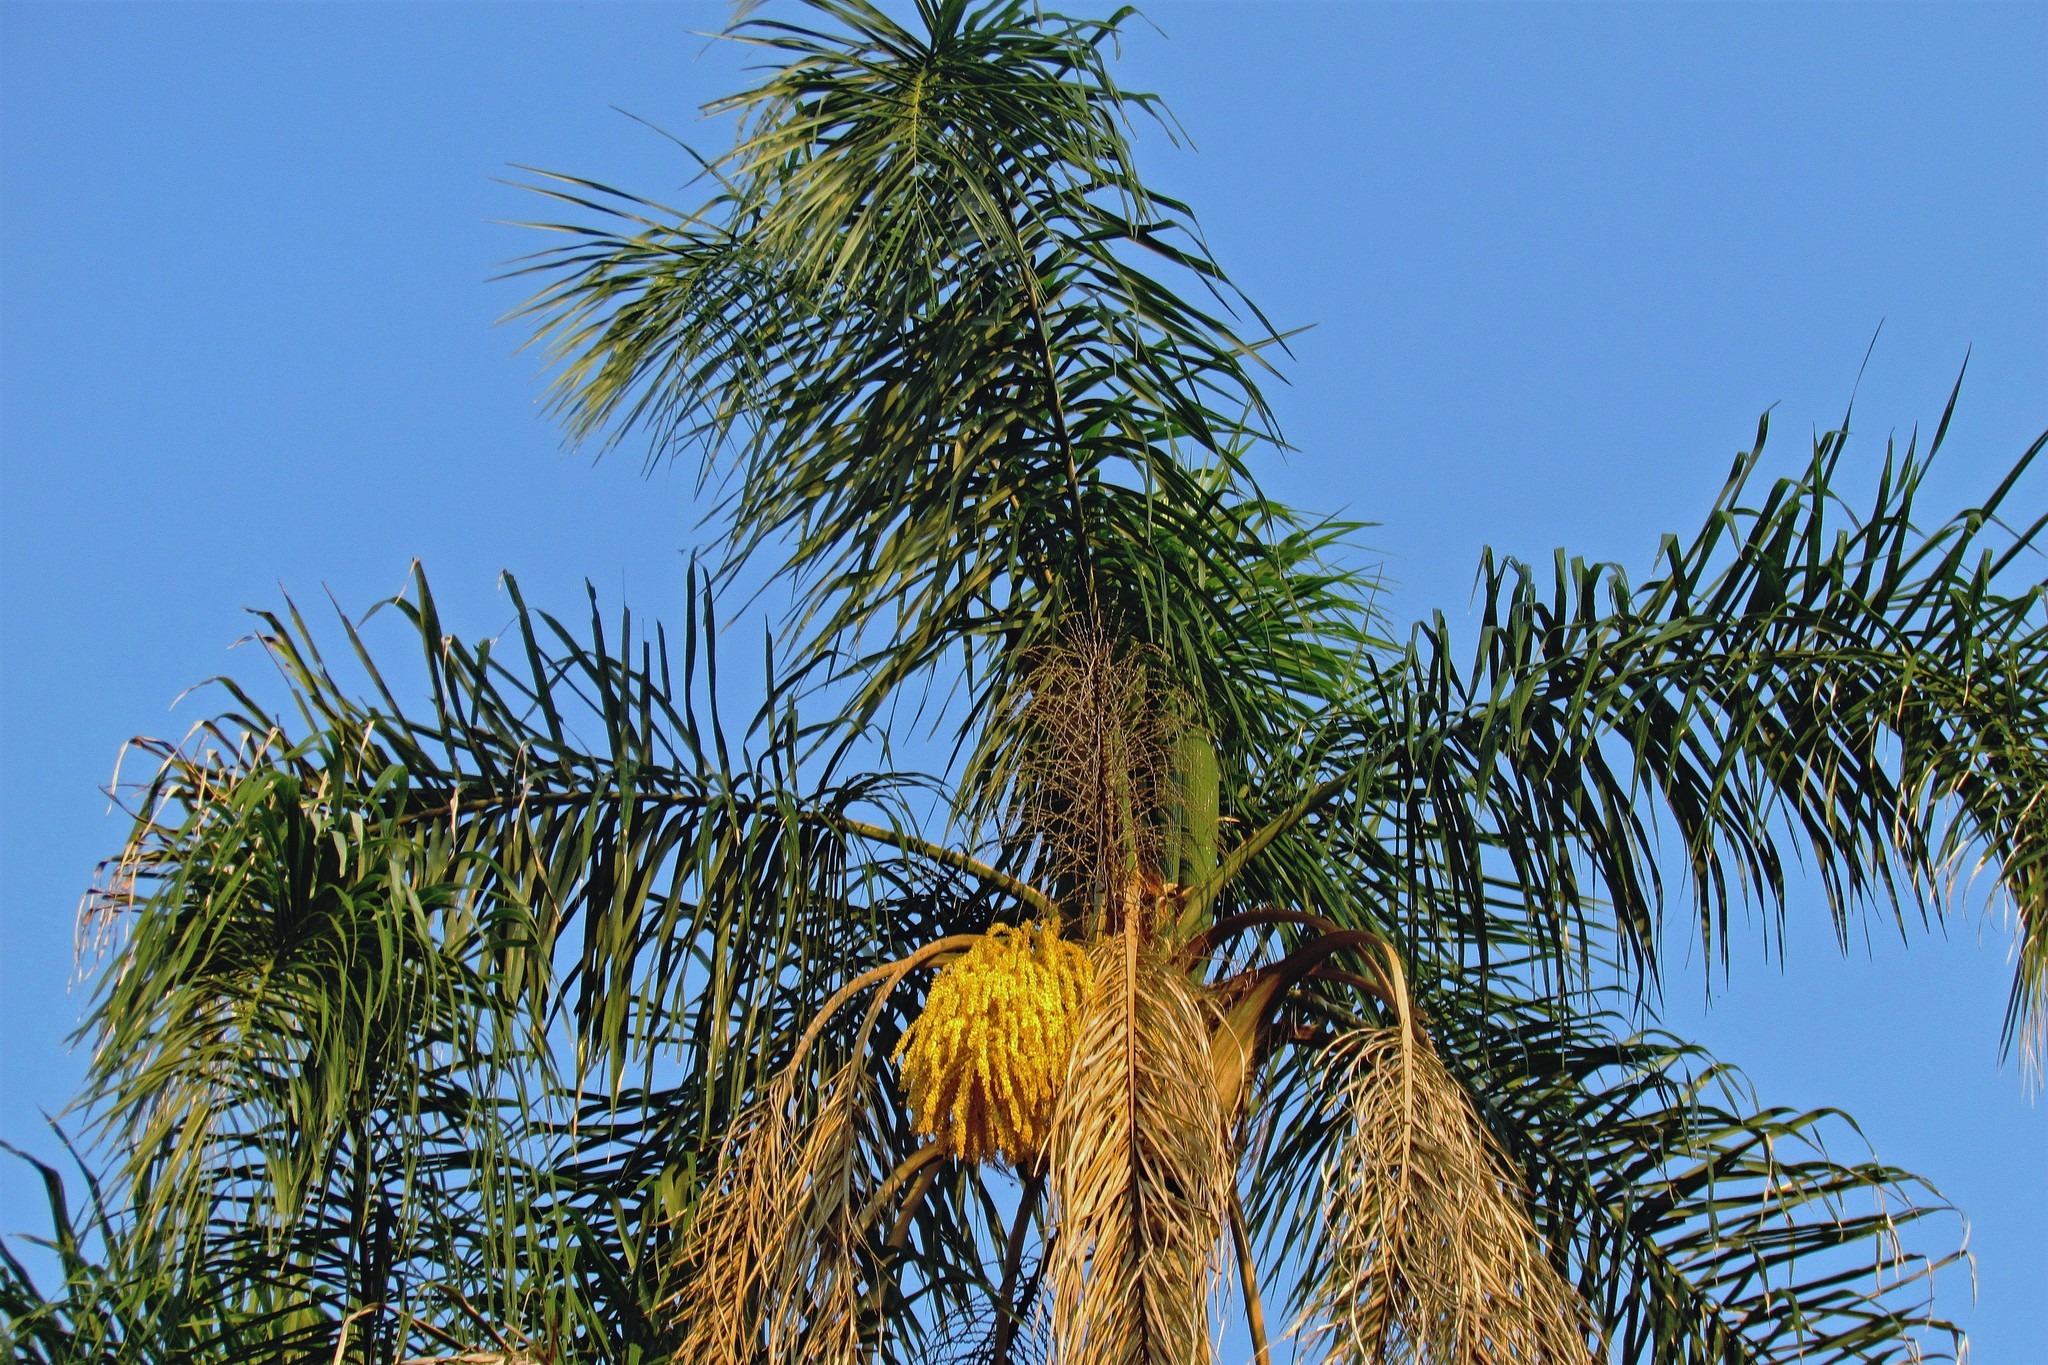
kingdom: Plantae
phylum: Tracheophyta
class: Liliopsida
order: Arecales
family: Arecaceae
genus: Syagrus
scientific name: Syagrus romanzoffiana
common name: Queen palm
